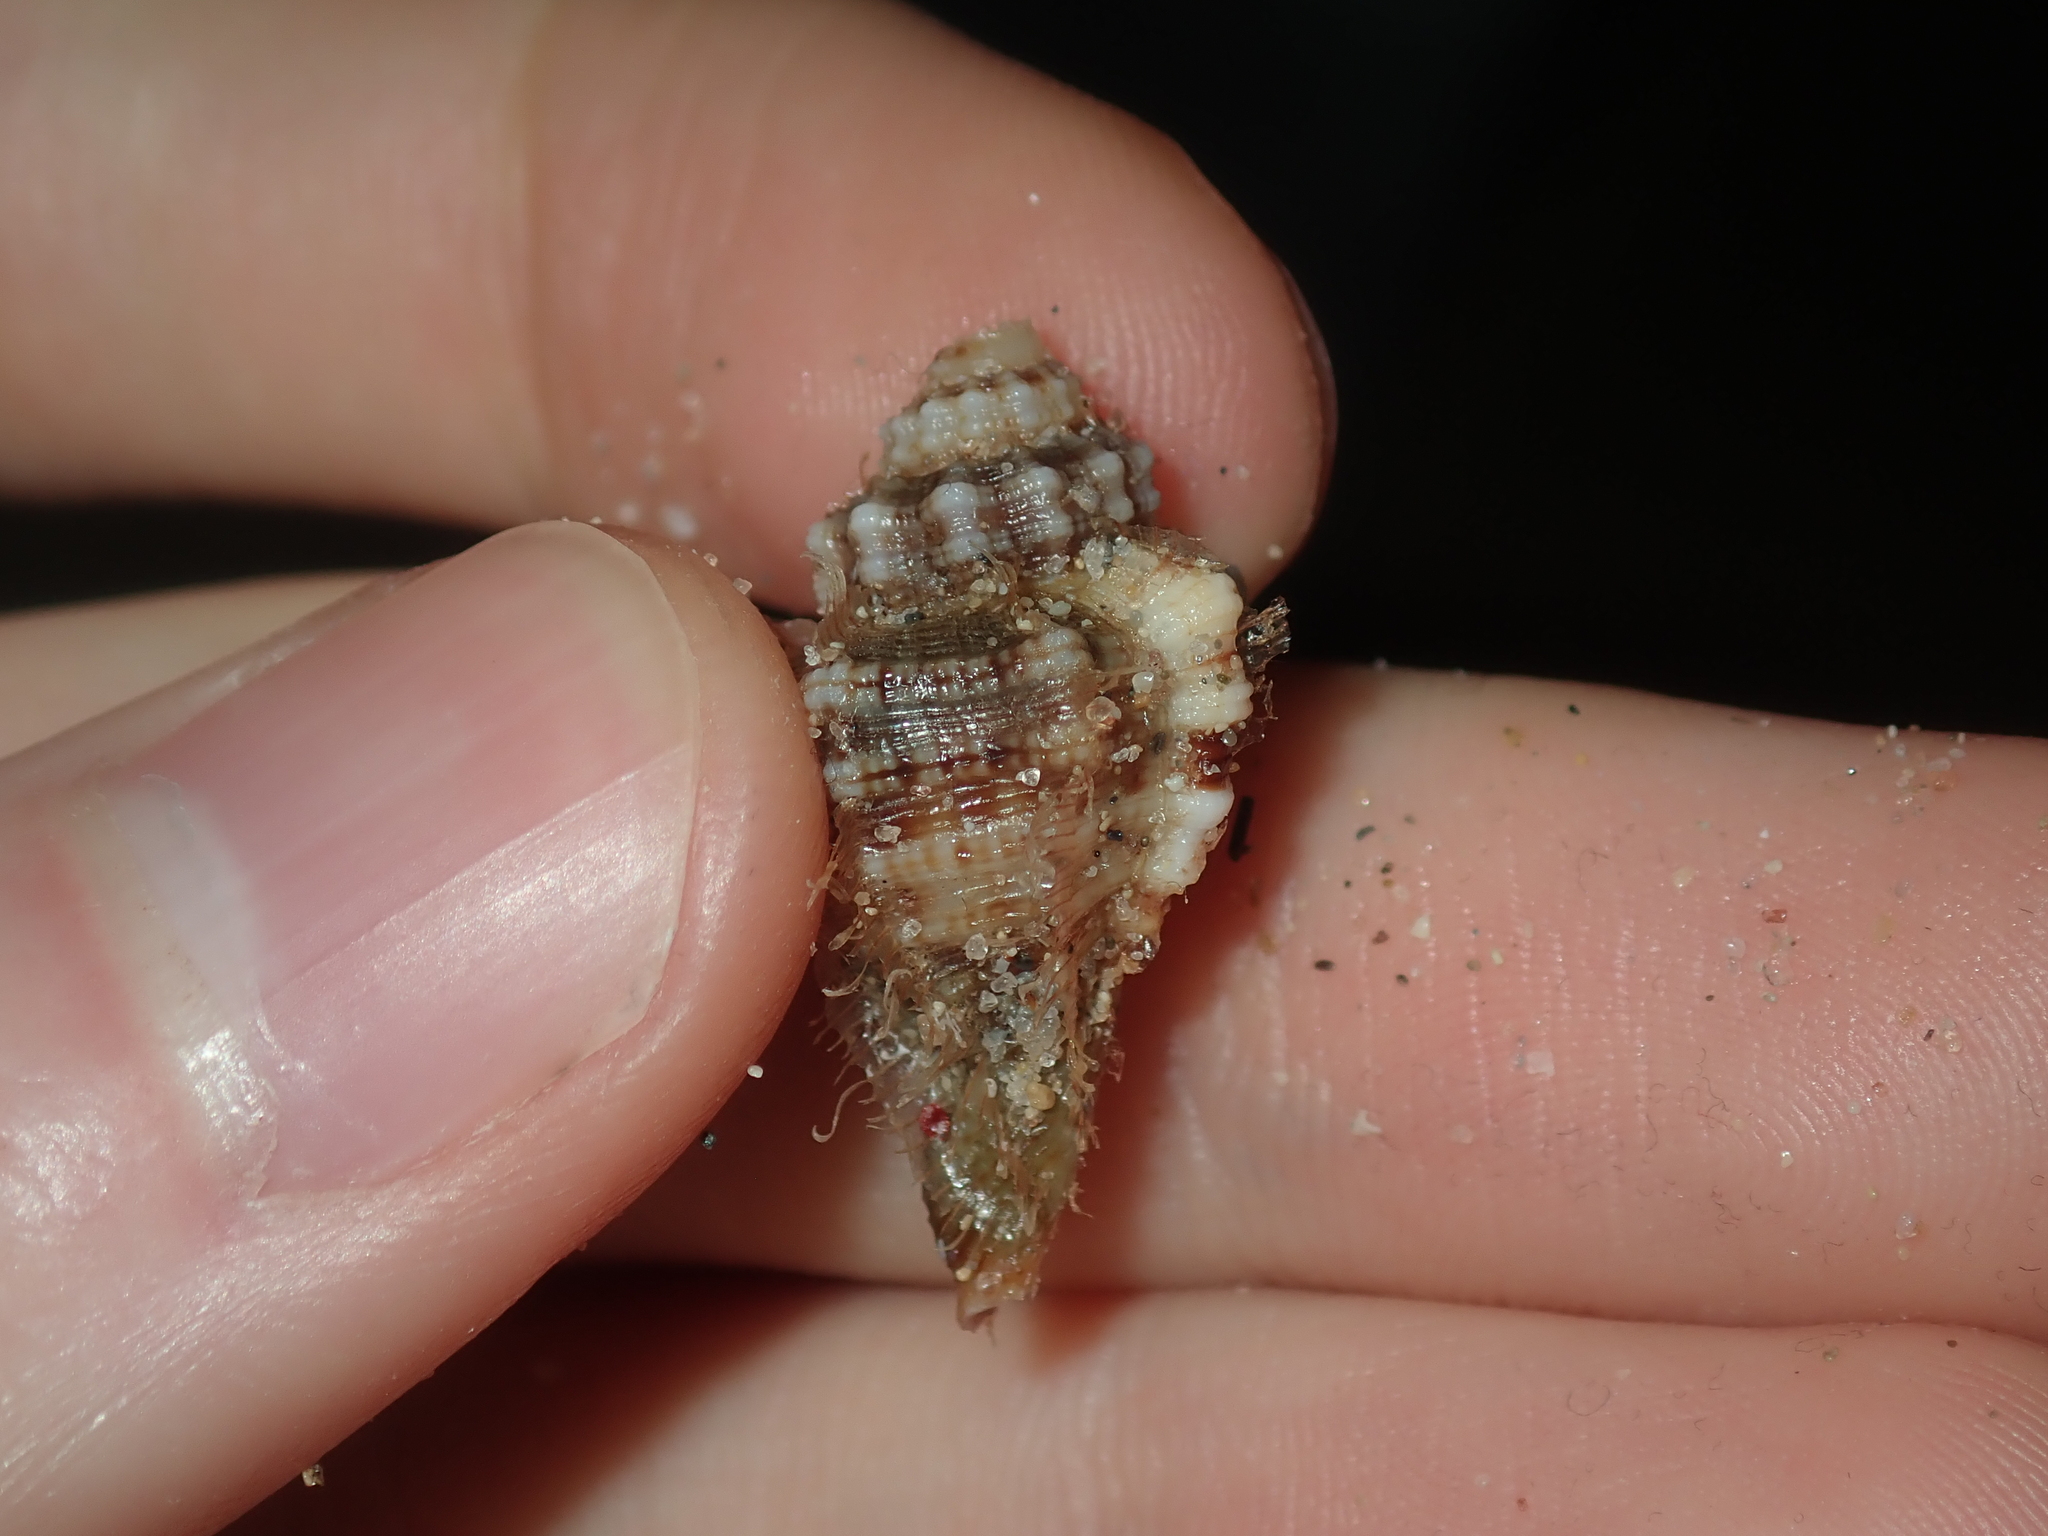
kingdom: Animalia
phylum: Mollusca
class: Gastropoda
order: Littorinimorpha
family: Cymatiidae
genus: Monoplex
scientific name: Monoplex exaratus
